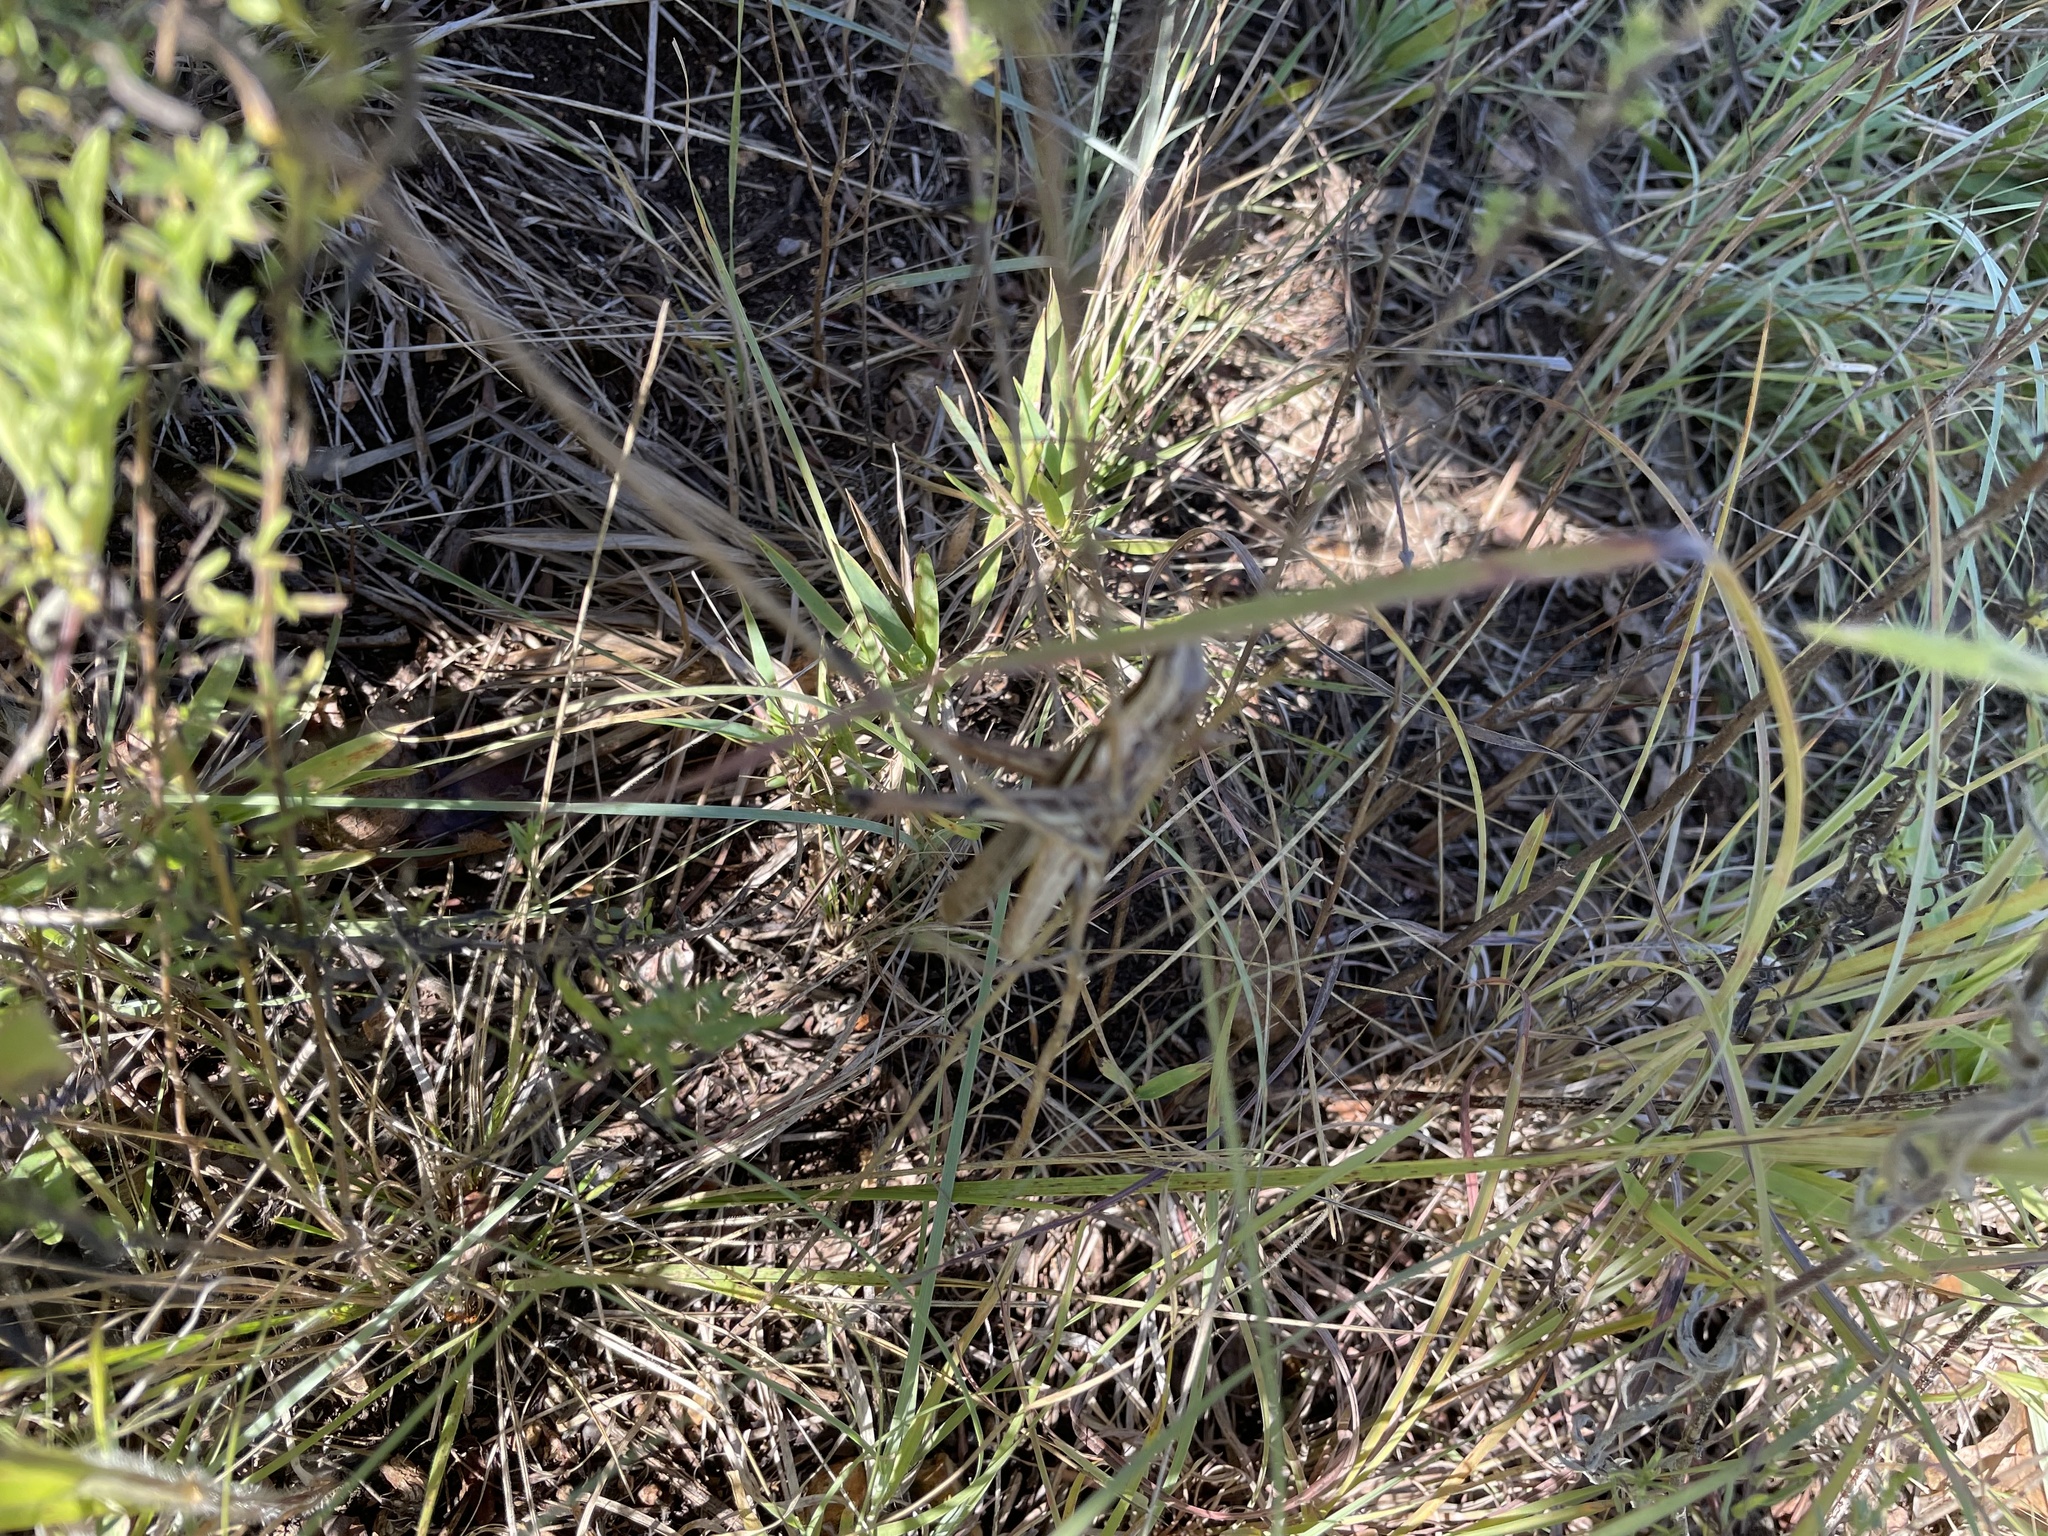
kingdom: Animalia
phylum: Arthropoda
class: Insecta
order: Orthoptera
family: Acrididae
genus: Mermiria
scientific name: Mermiria bivittata
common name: Two-striped mermiria grasshopper
